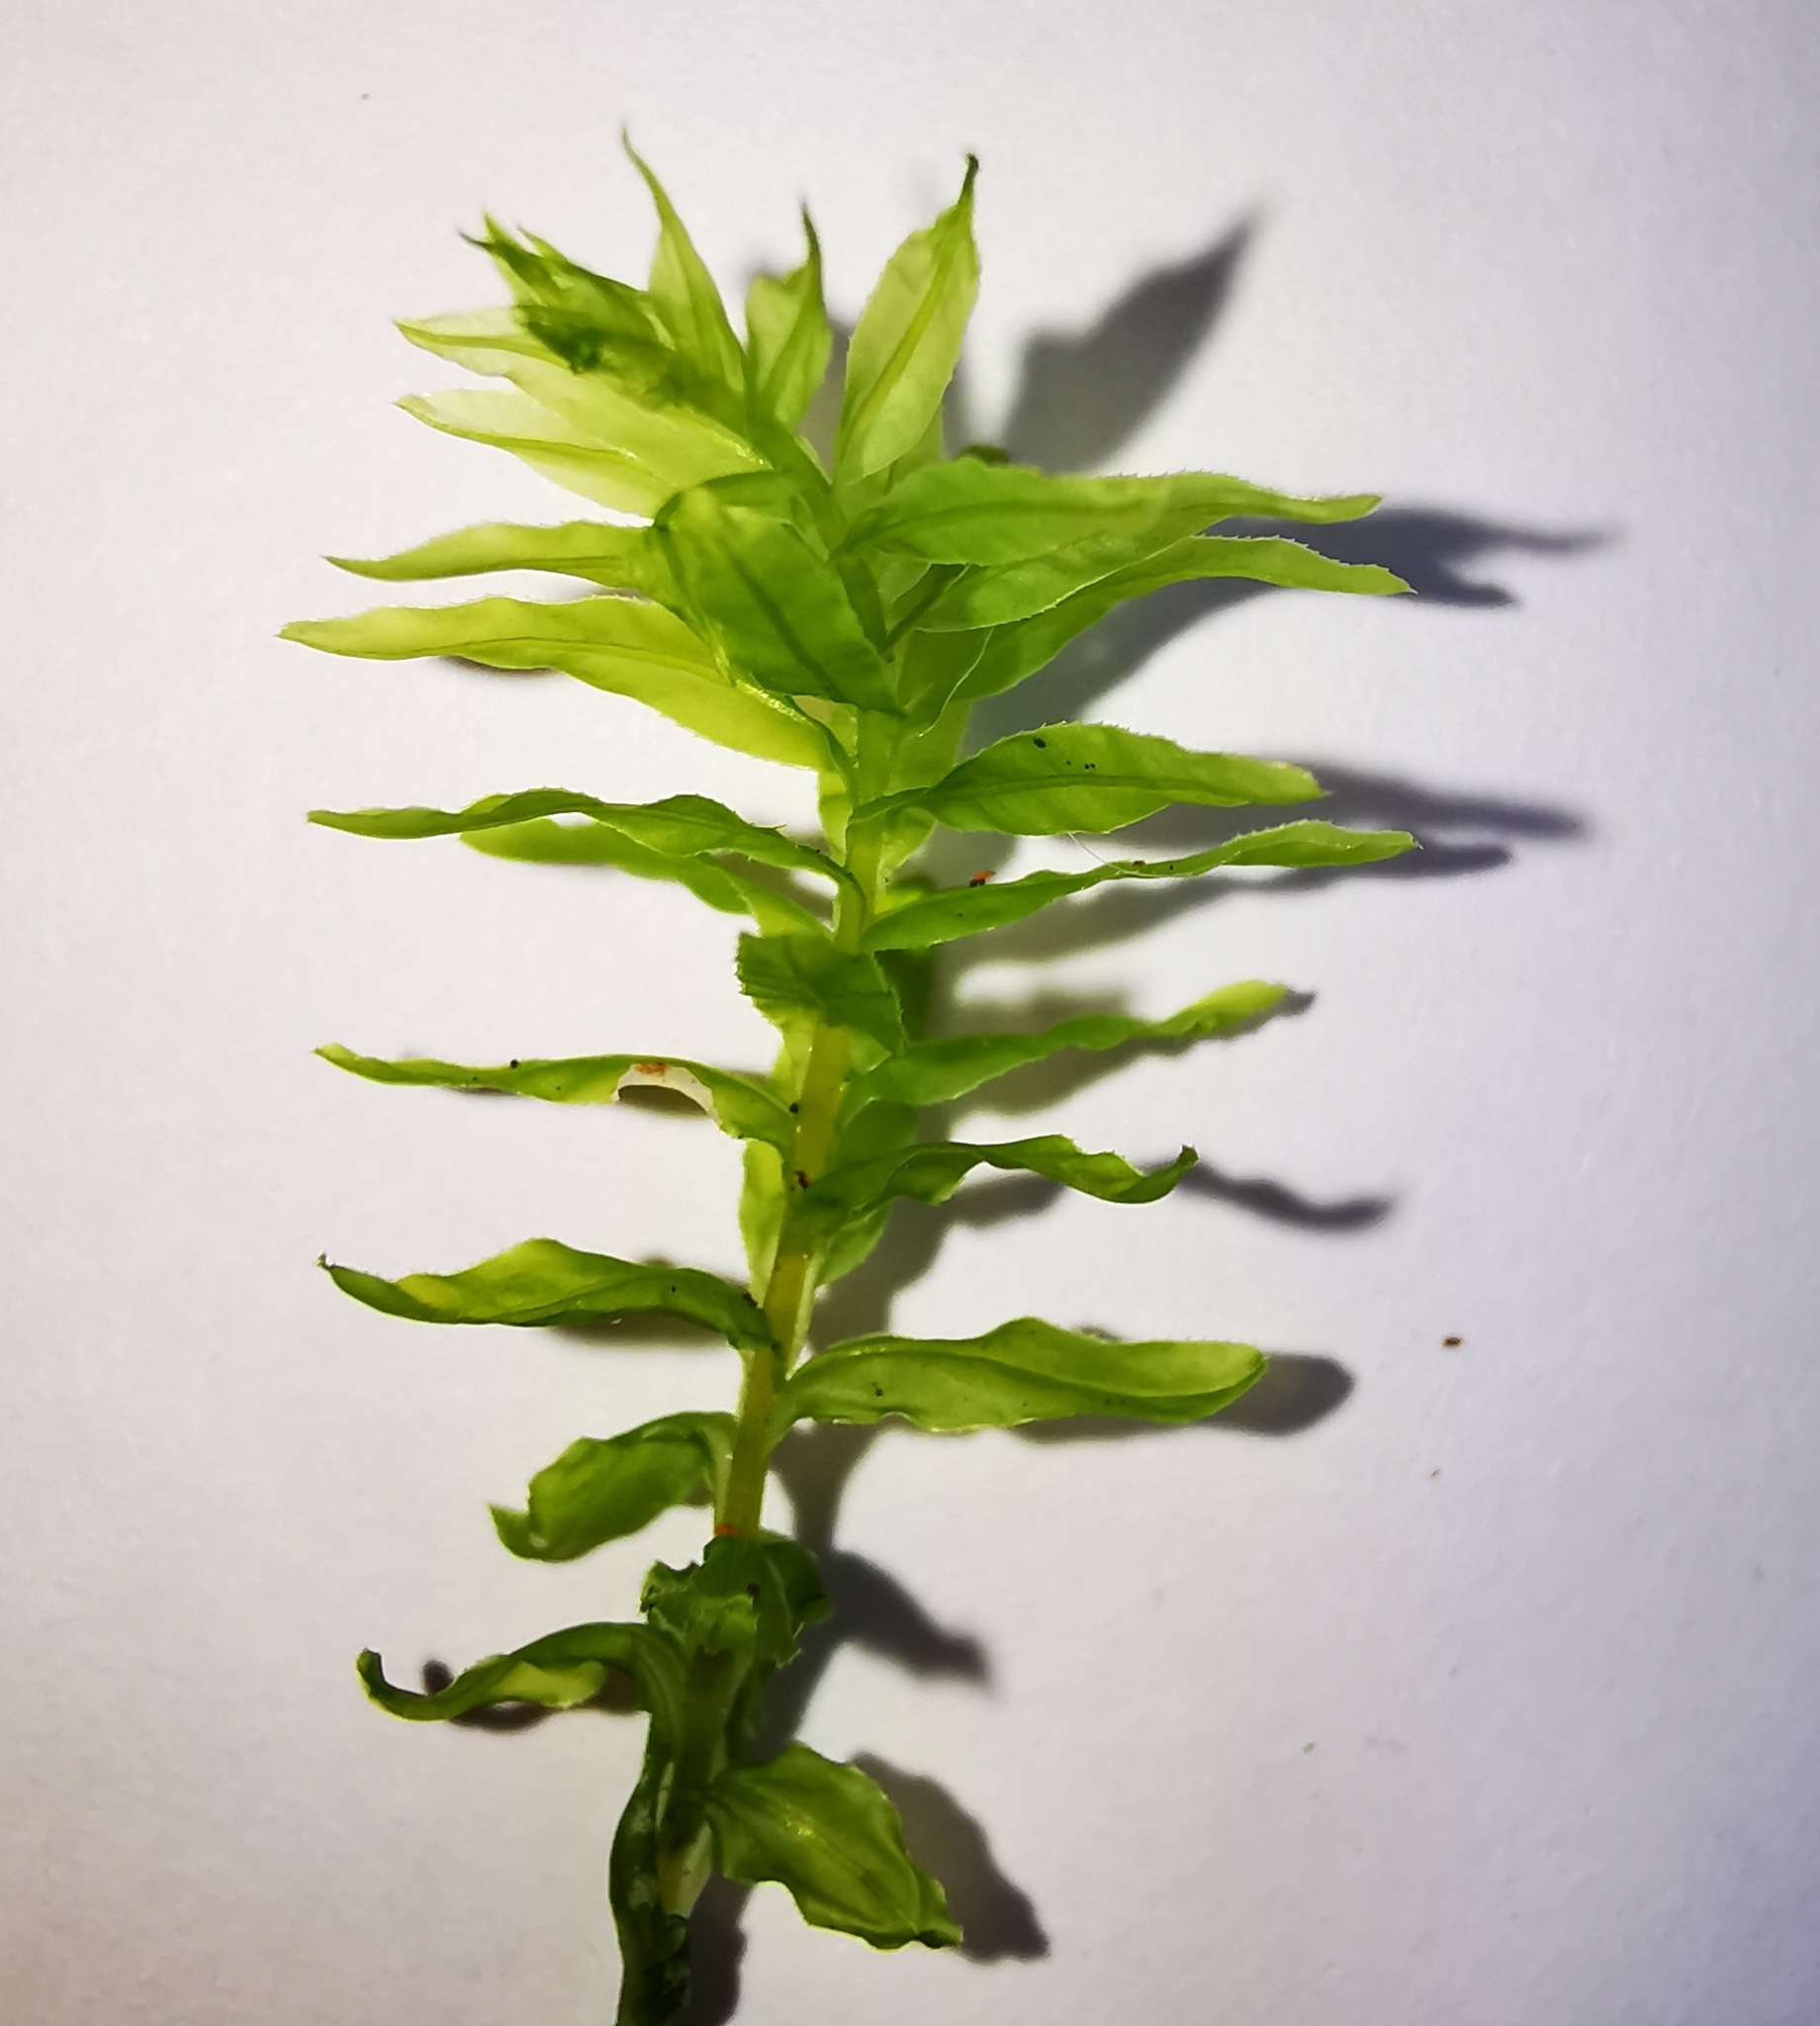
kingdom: Plantae
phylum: Bryophyta
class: Bryopsida
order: Bryales
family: Mniaceae
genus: Plagiomnium
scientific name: Plagiomnium undulatum
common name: Hart's-tongue thyme-moss
